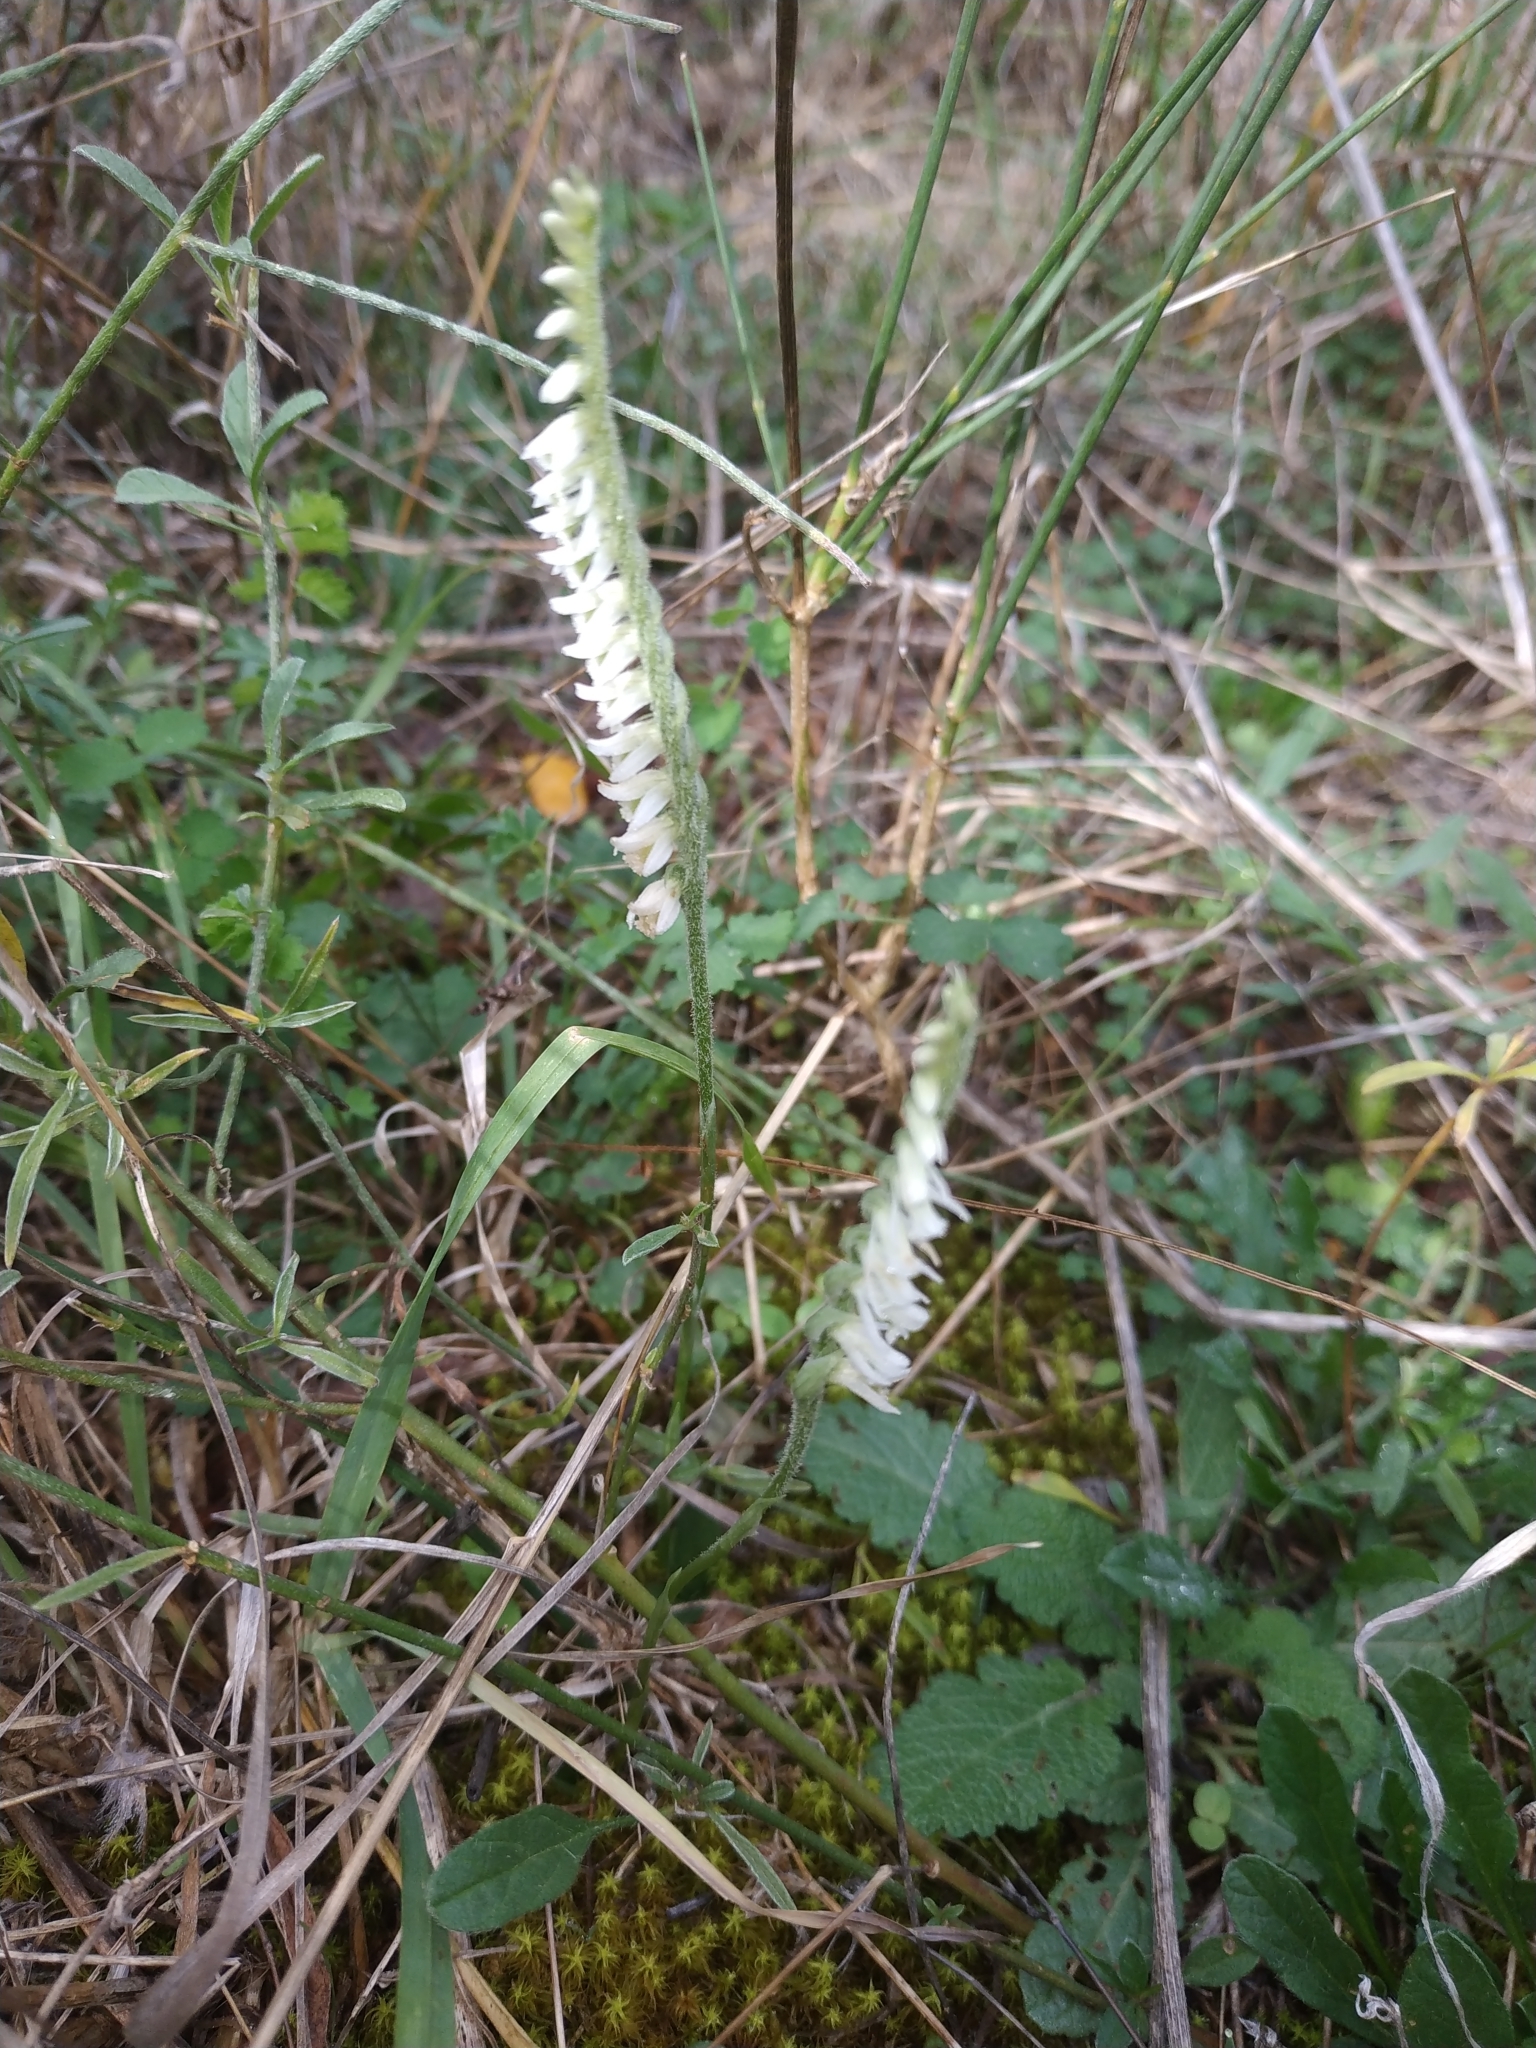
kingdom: Plantae
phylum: Tracheophyta
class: Liliopsida
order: Asparagales
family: Orchidaceae
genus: Spiranthes
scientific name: Spiranthes spiralis
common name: Autumn lady's-tresses
